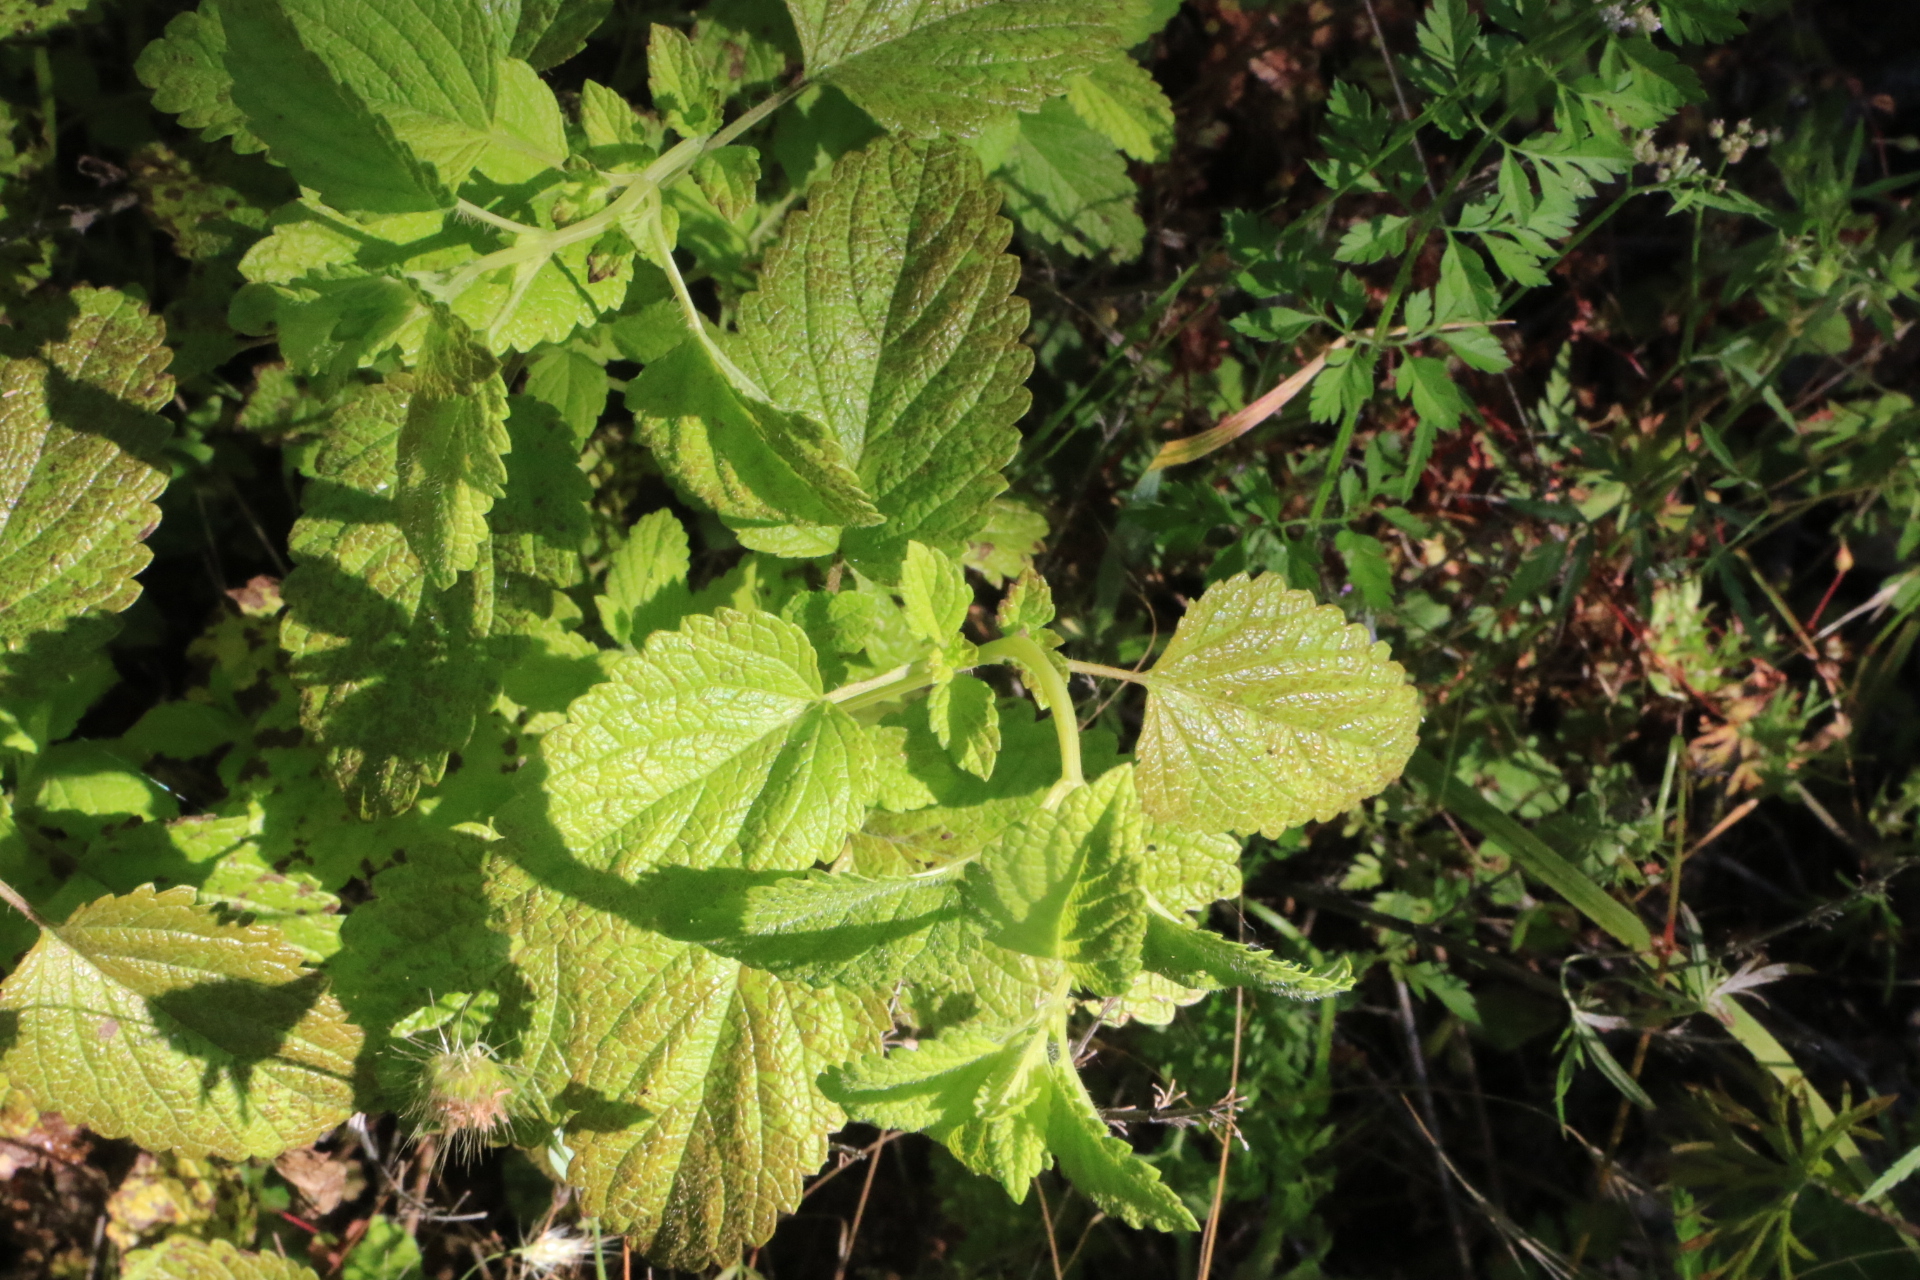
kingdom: Plantae
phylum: Tracheophyta
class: Magnoliopsida
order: Lamiales
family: Lamiaceae
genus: Melissa
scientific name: Melissa officinalis
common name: Balm
